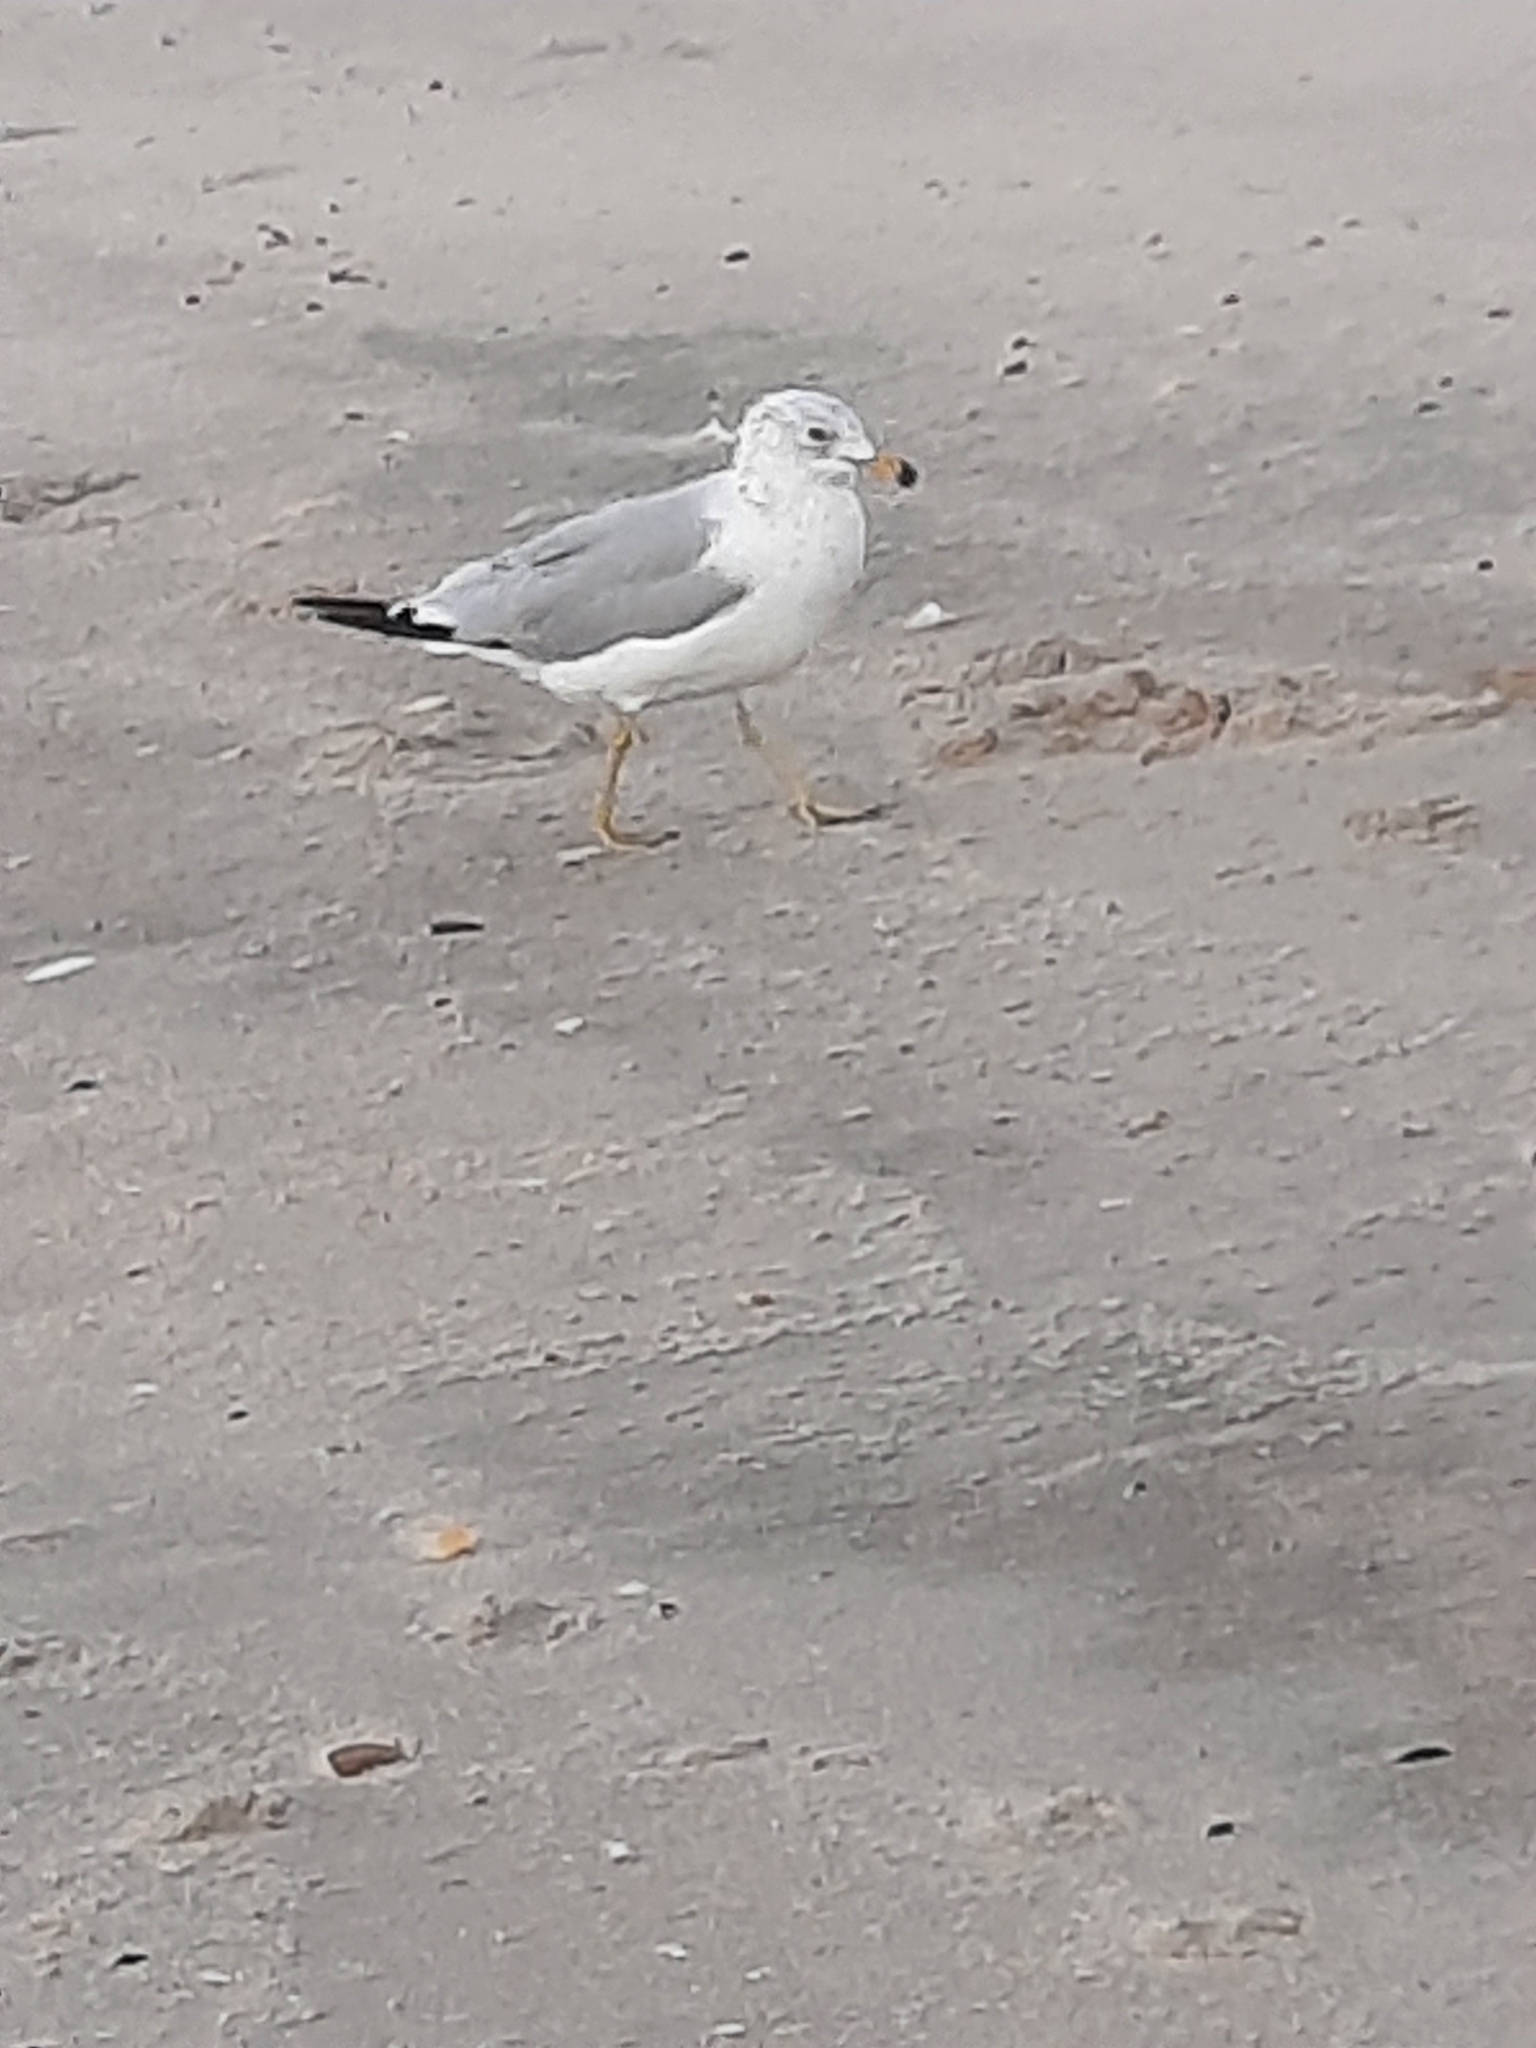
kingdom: Animalia
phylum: Chordata
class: Aves
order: Charadriiformes
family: Laridae
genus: Larus
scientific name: Larus delawarensis
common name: Ring-billed gull
